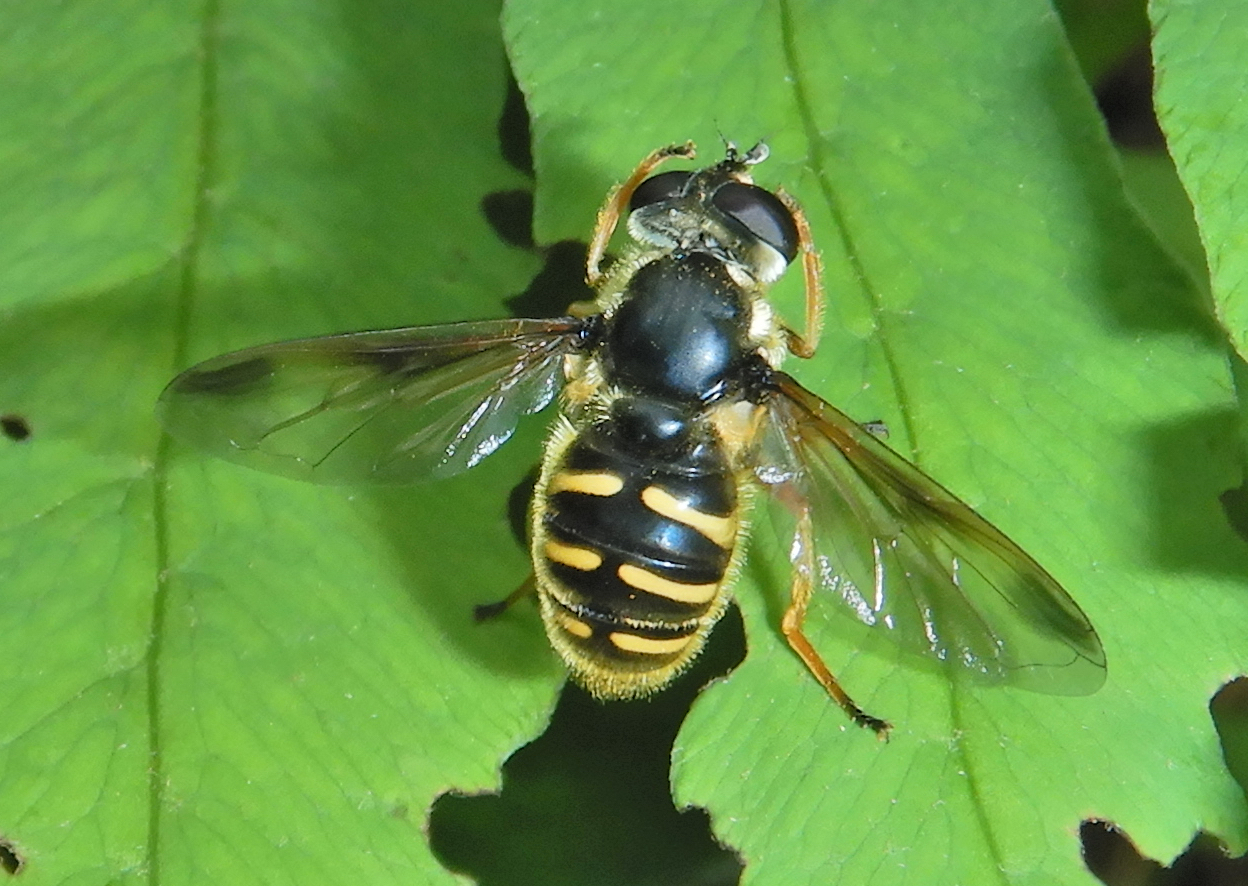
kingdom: Animalia
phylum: Arthropoda
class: Insecta
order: Diptera
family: Syrphidae
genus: Sericomyia
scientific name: Sericomyia chrysotoxoides
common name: Oblique-banded pond fly
